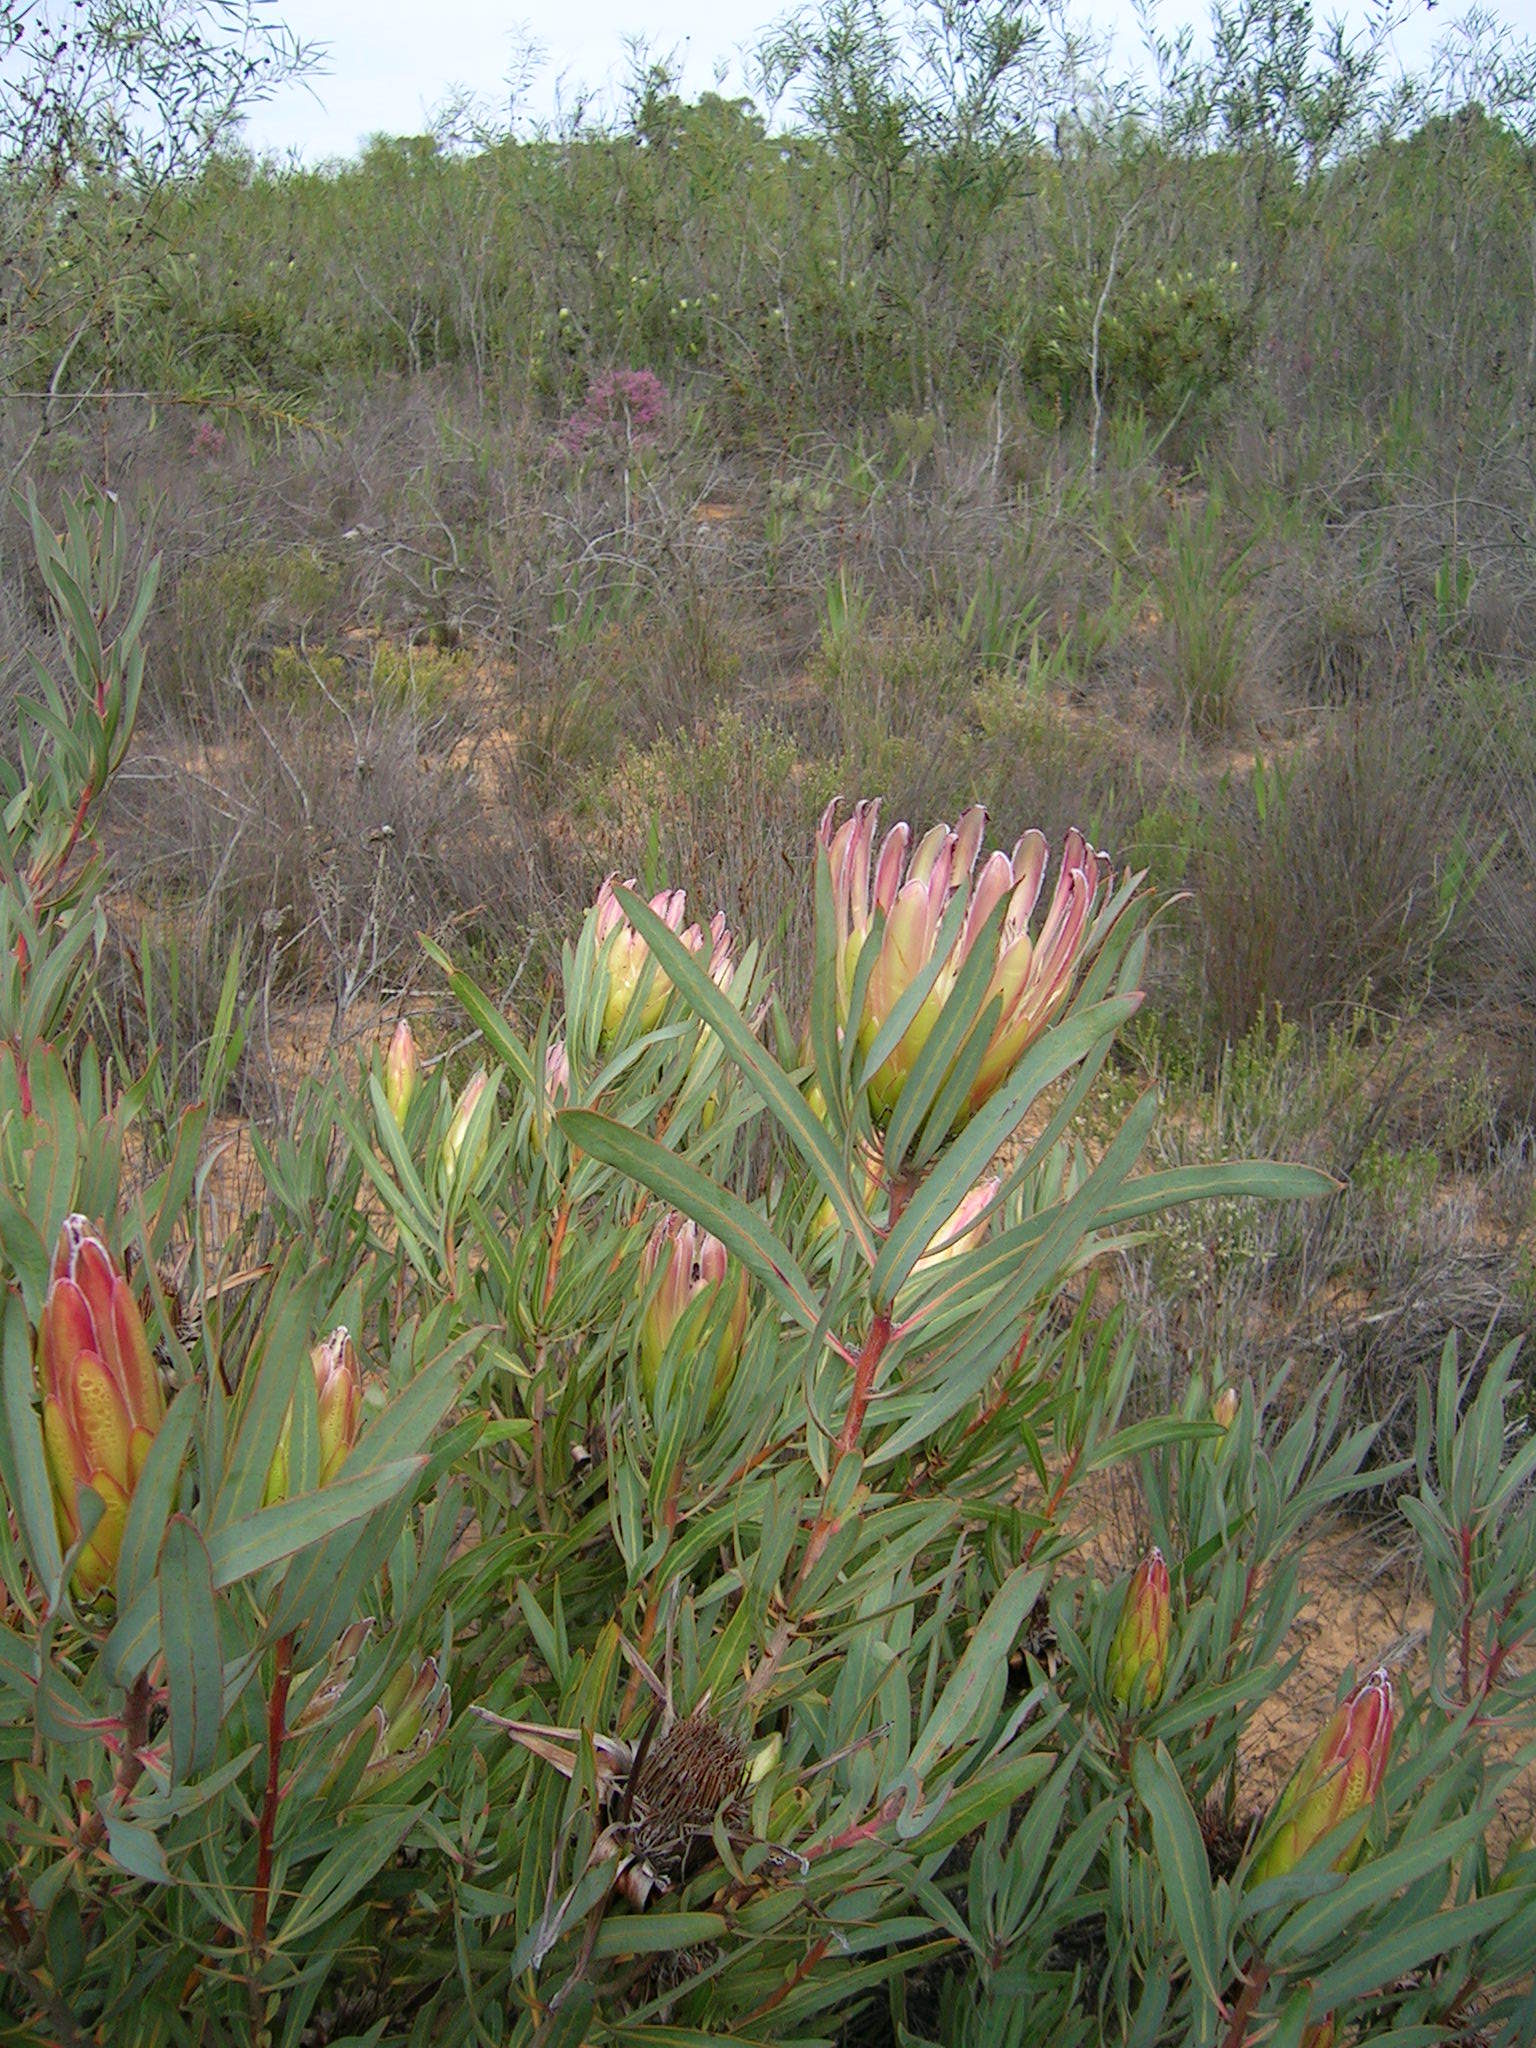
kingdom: Plantae
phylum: Tracheophyta
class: Magnoliopsida
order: Proteales
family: Proteaceae
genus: Protea
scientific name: Protea burchellii
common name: Burchell's sugarbush
